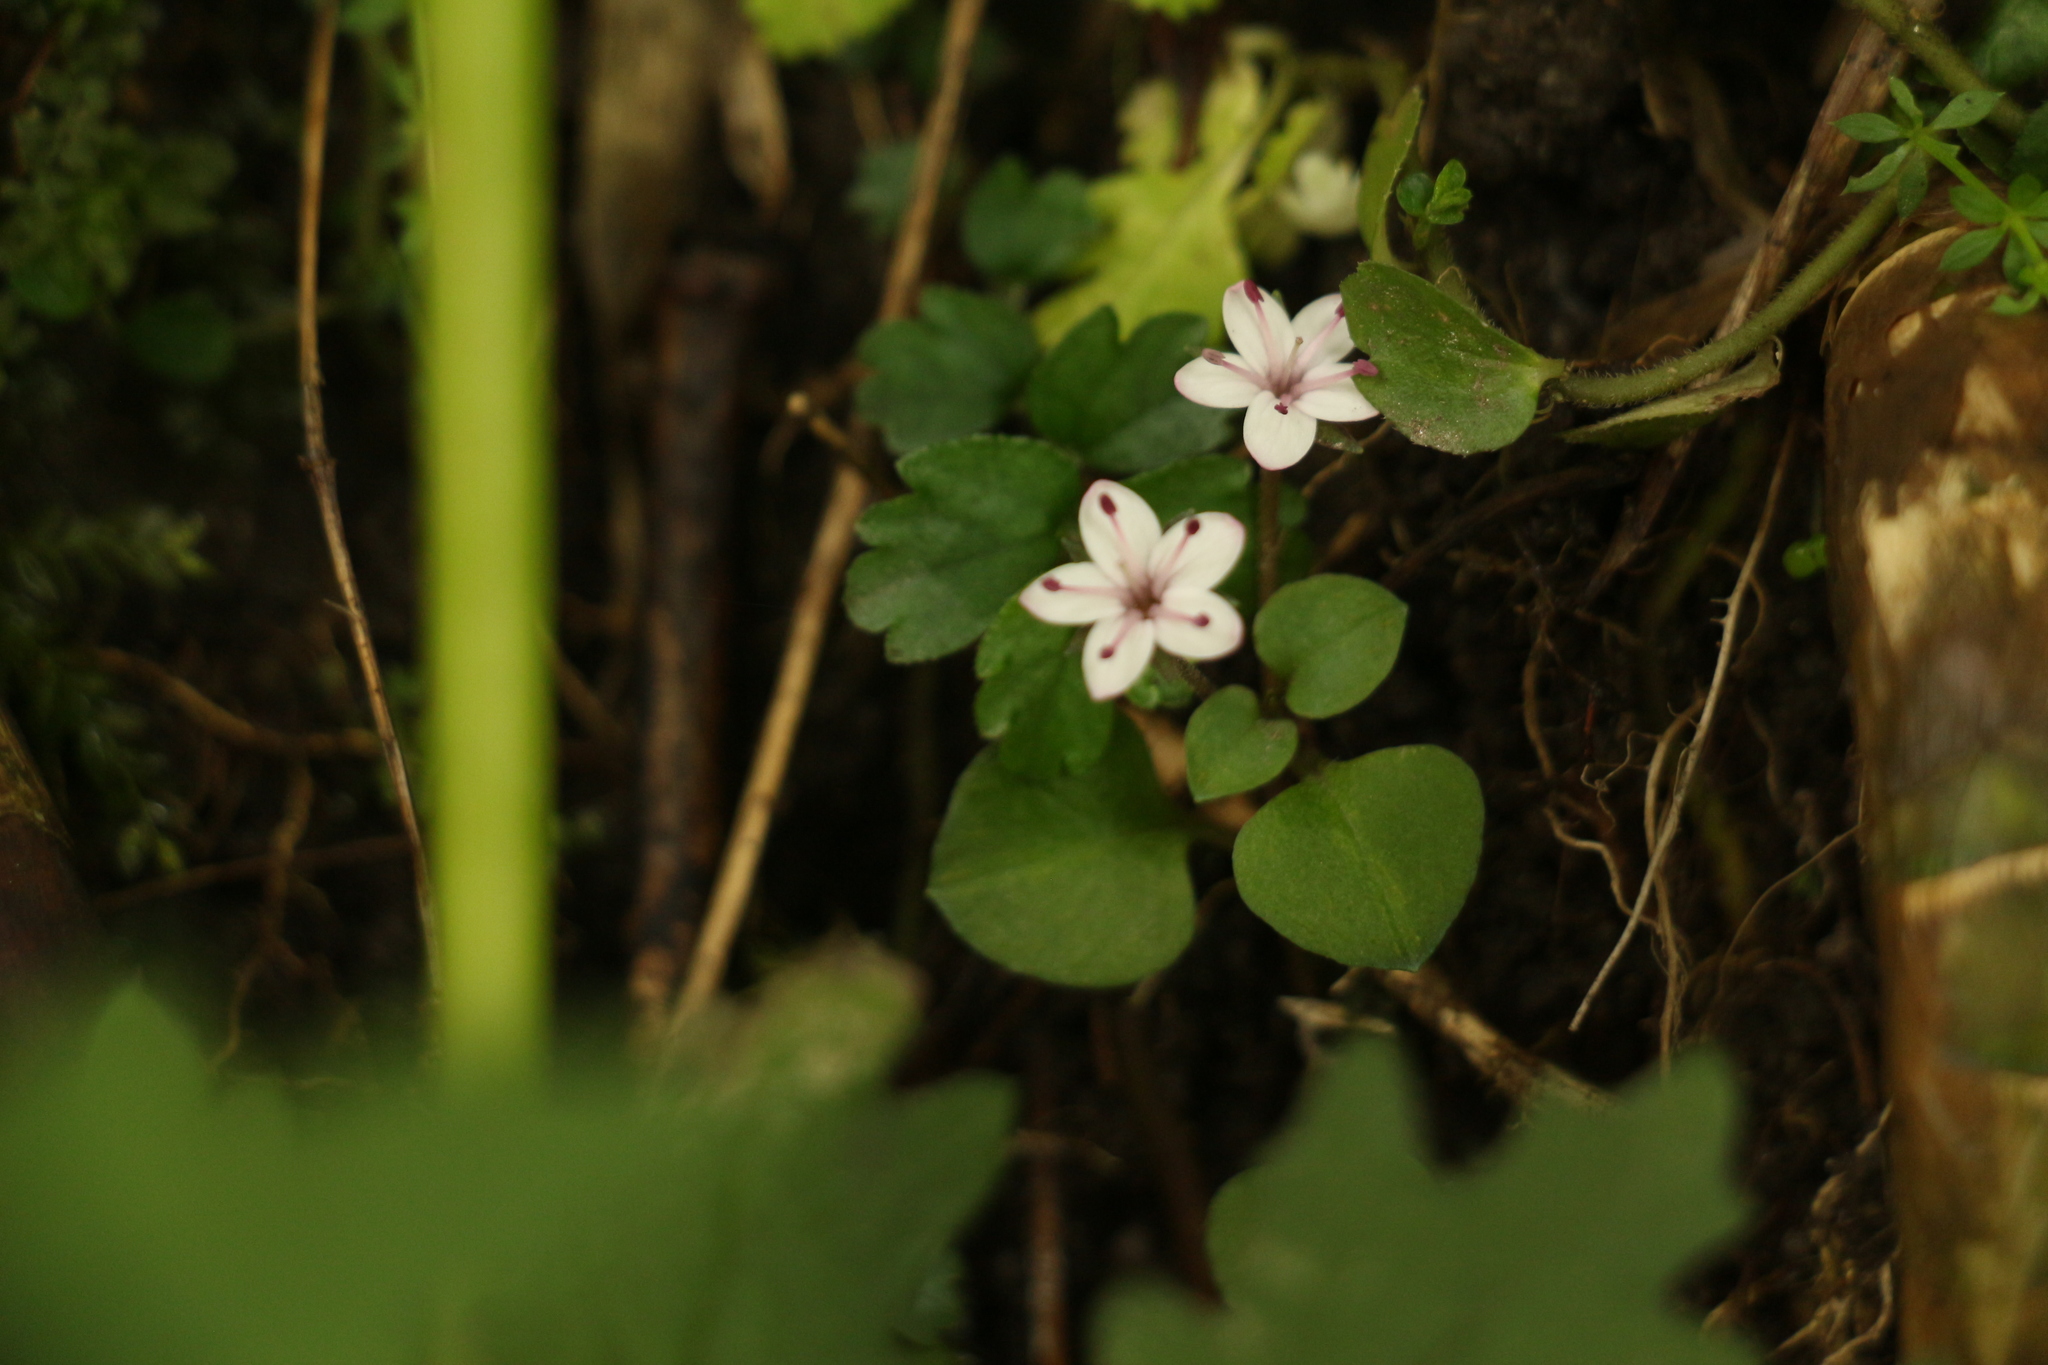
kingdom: Plantae
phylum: Tracheophyta
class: Magnoliopsida
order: Ericales
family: Primulaceae
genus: Lysimachia
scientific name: Lysimachia prolifera
